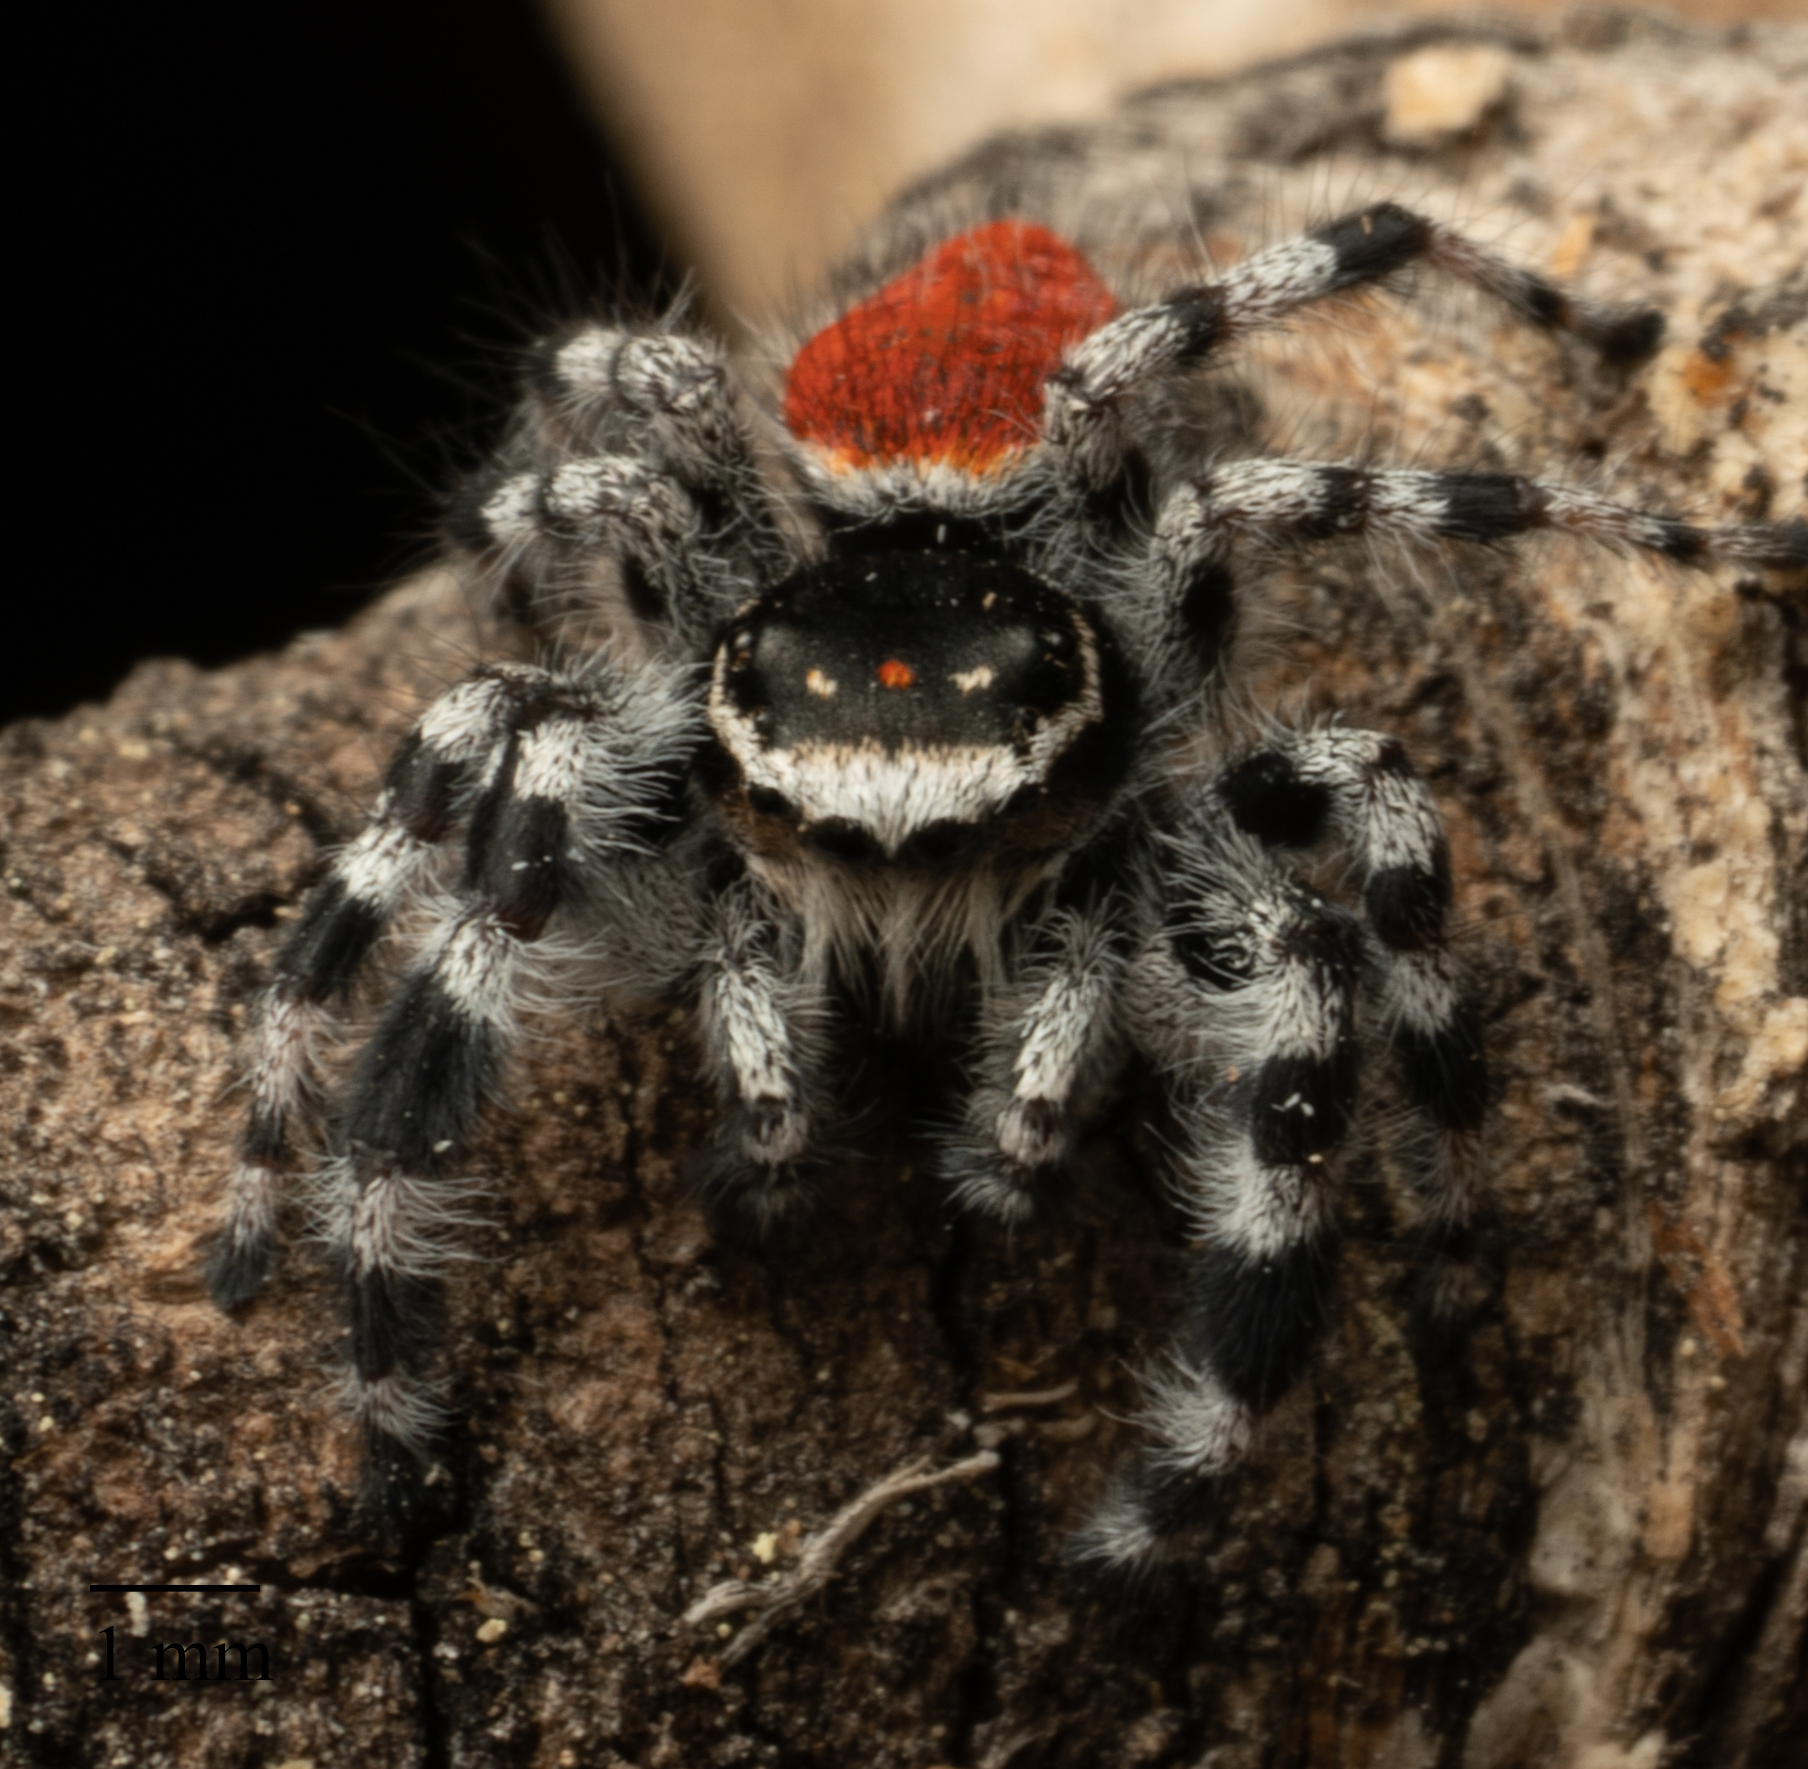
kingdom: Animalia
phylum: Arthropoda
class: Arachnida
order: Araneae
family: Salticidae
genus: Phidippus
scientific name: Phidippus tyrrelli
